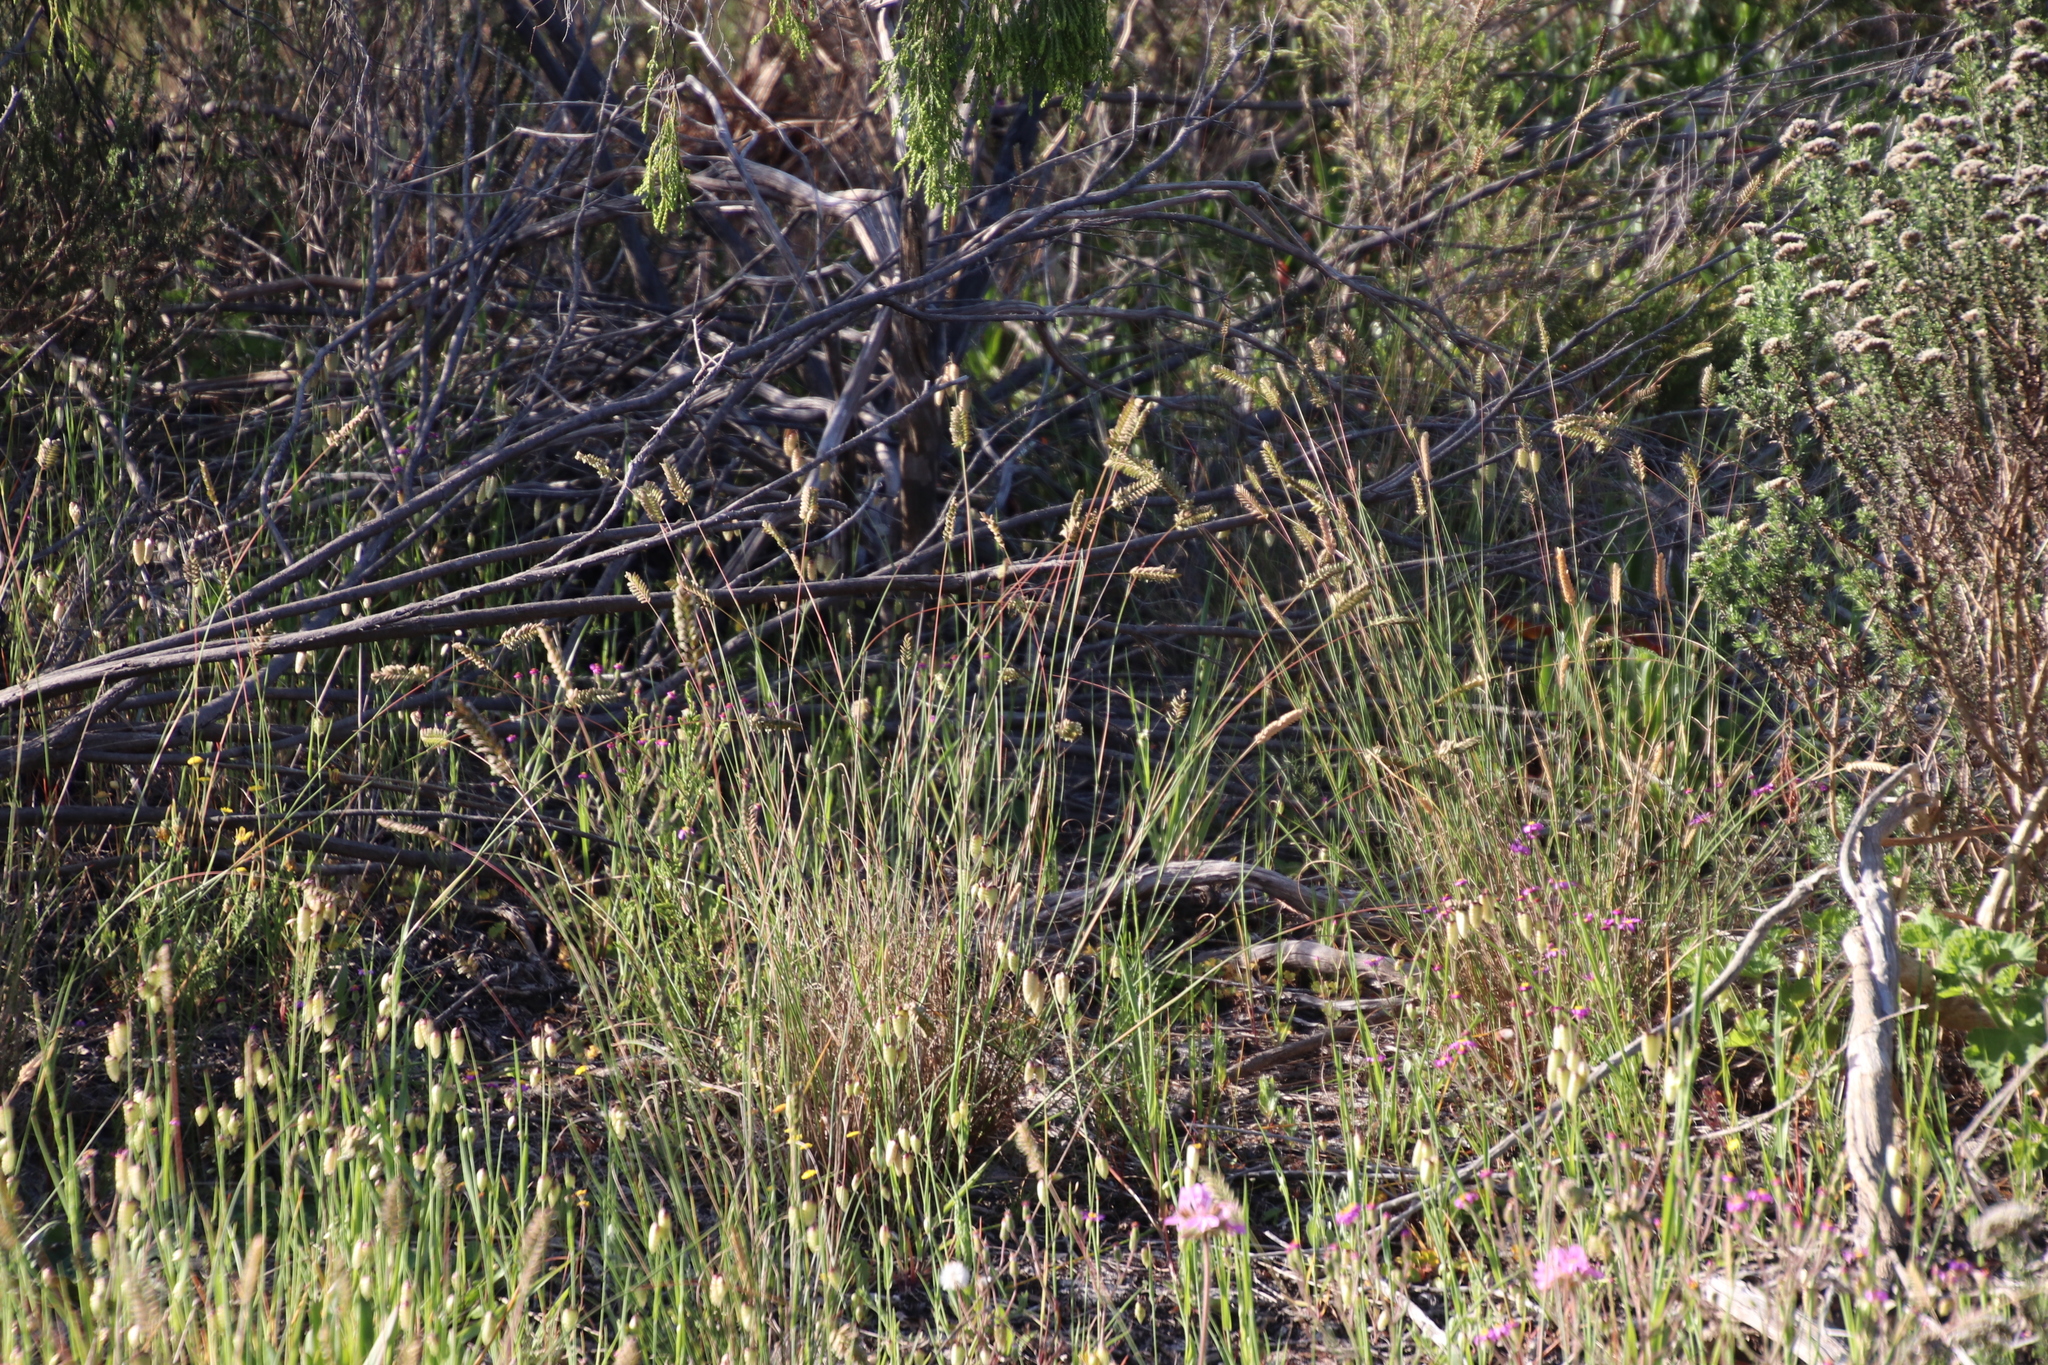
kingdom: Plantae
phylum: Tracheophyta
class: Liliopsida
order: Poales
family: Poaceae
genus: Tribolium
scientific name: Tribolium uniolae
